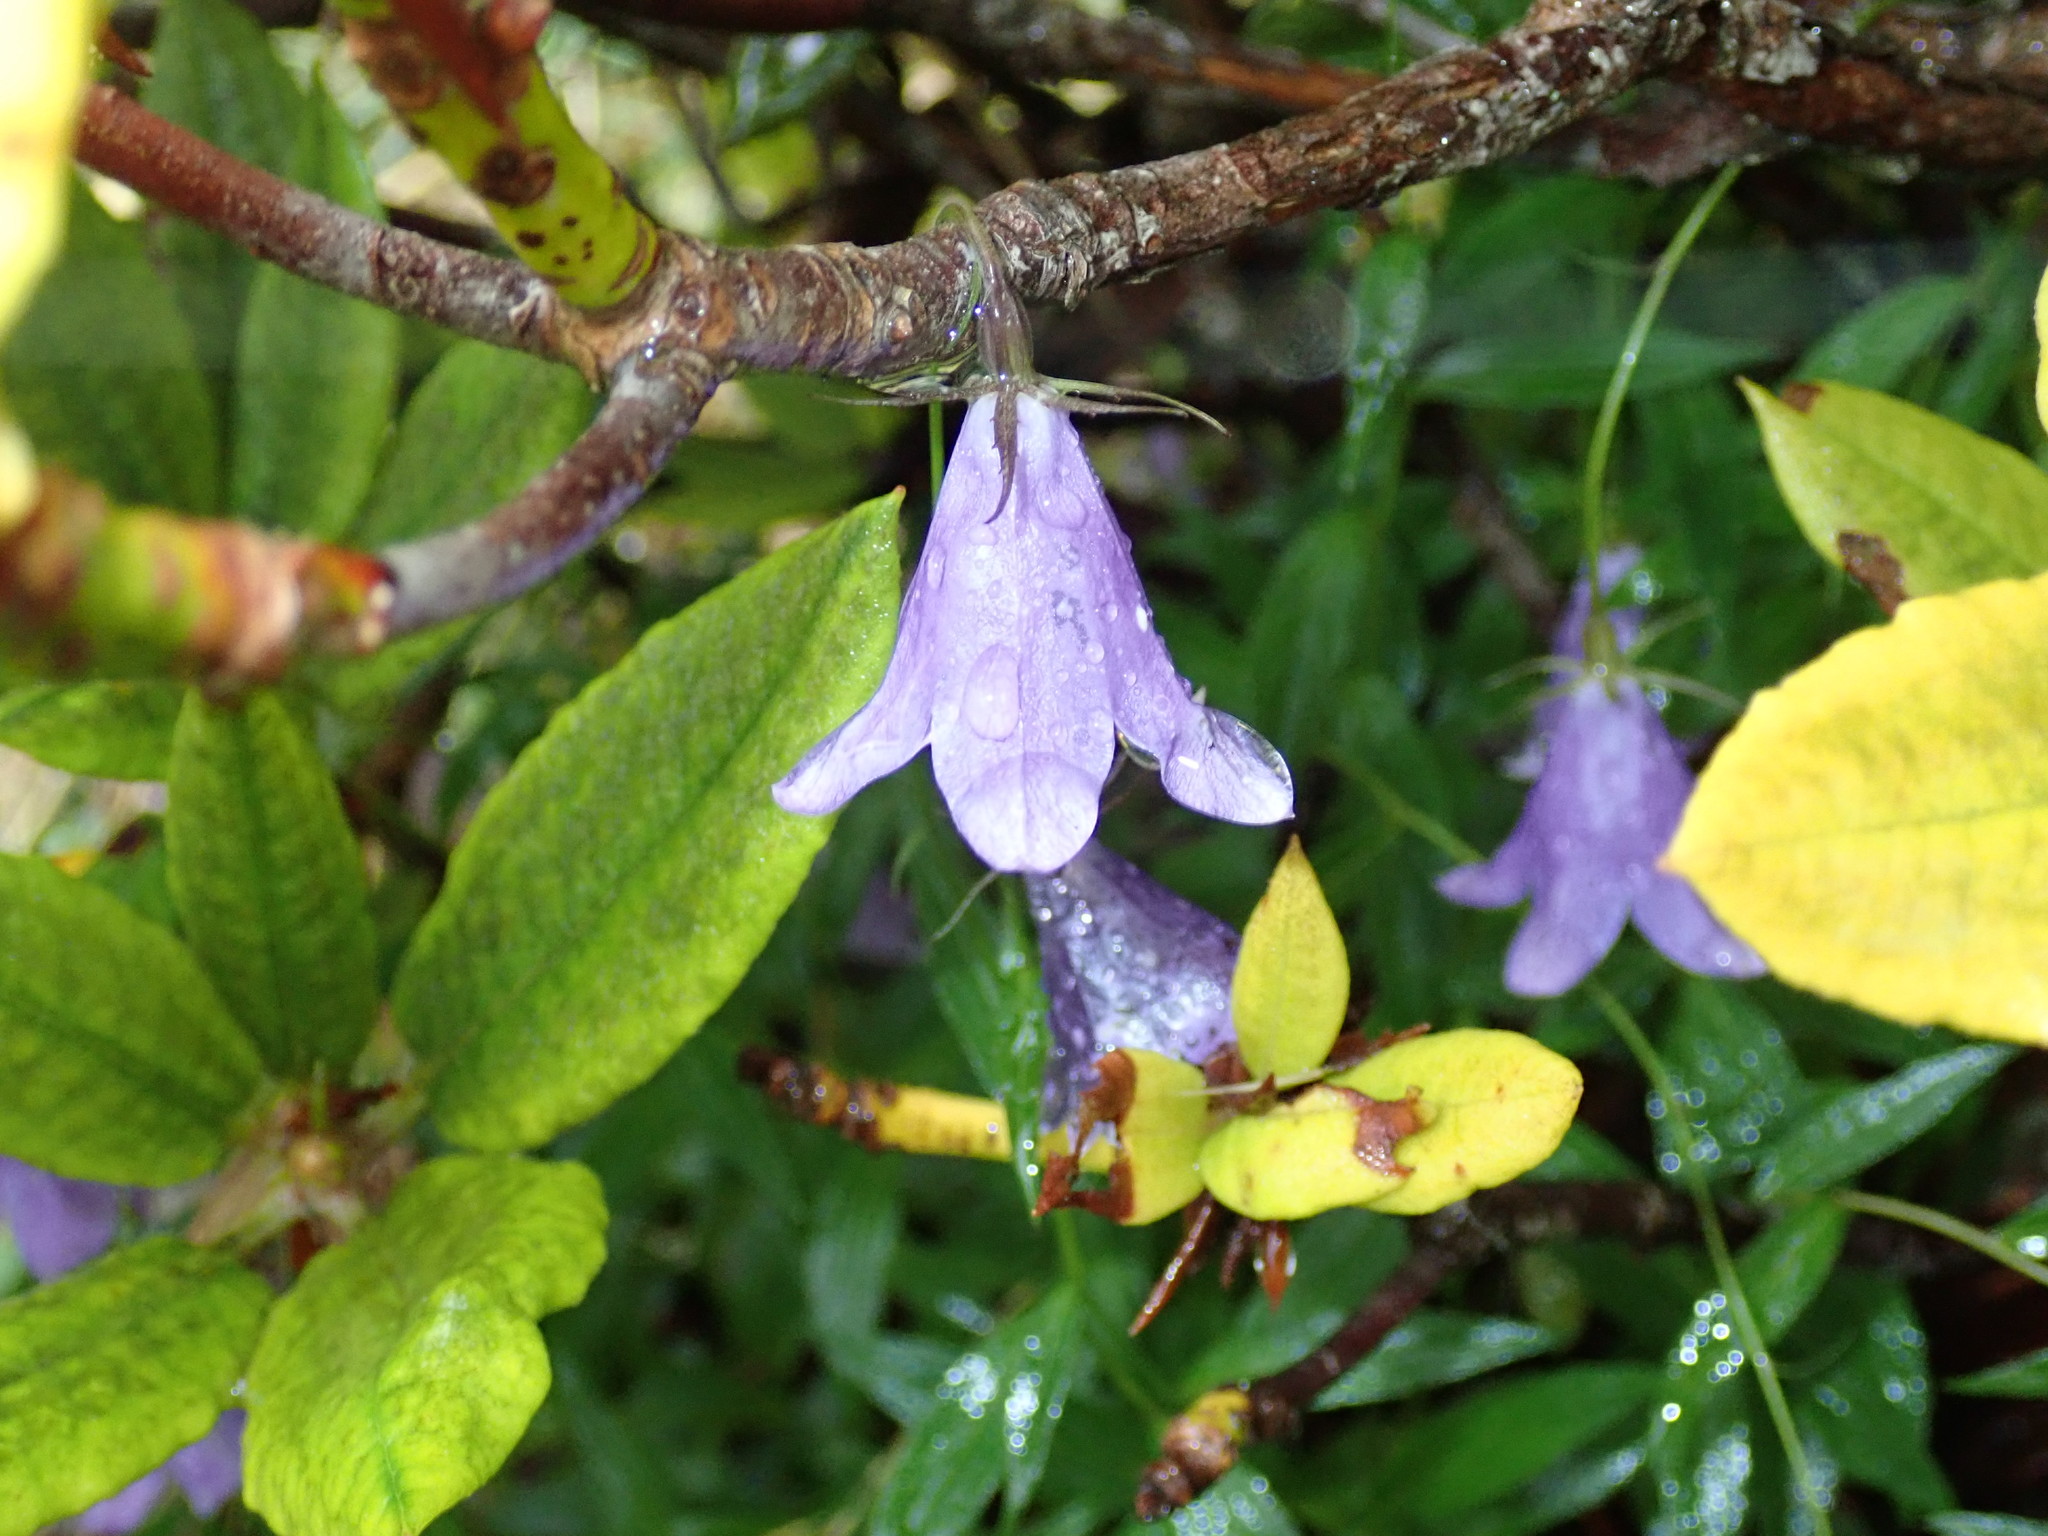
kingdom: Plantae
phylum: Tracheophyta
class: Magnoliopsida
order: Asterales
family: Campanulaceae
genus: Adenophora
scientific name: Adenophora morrisonensis
